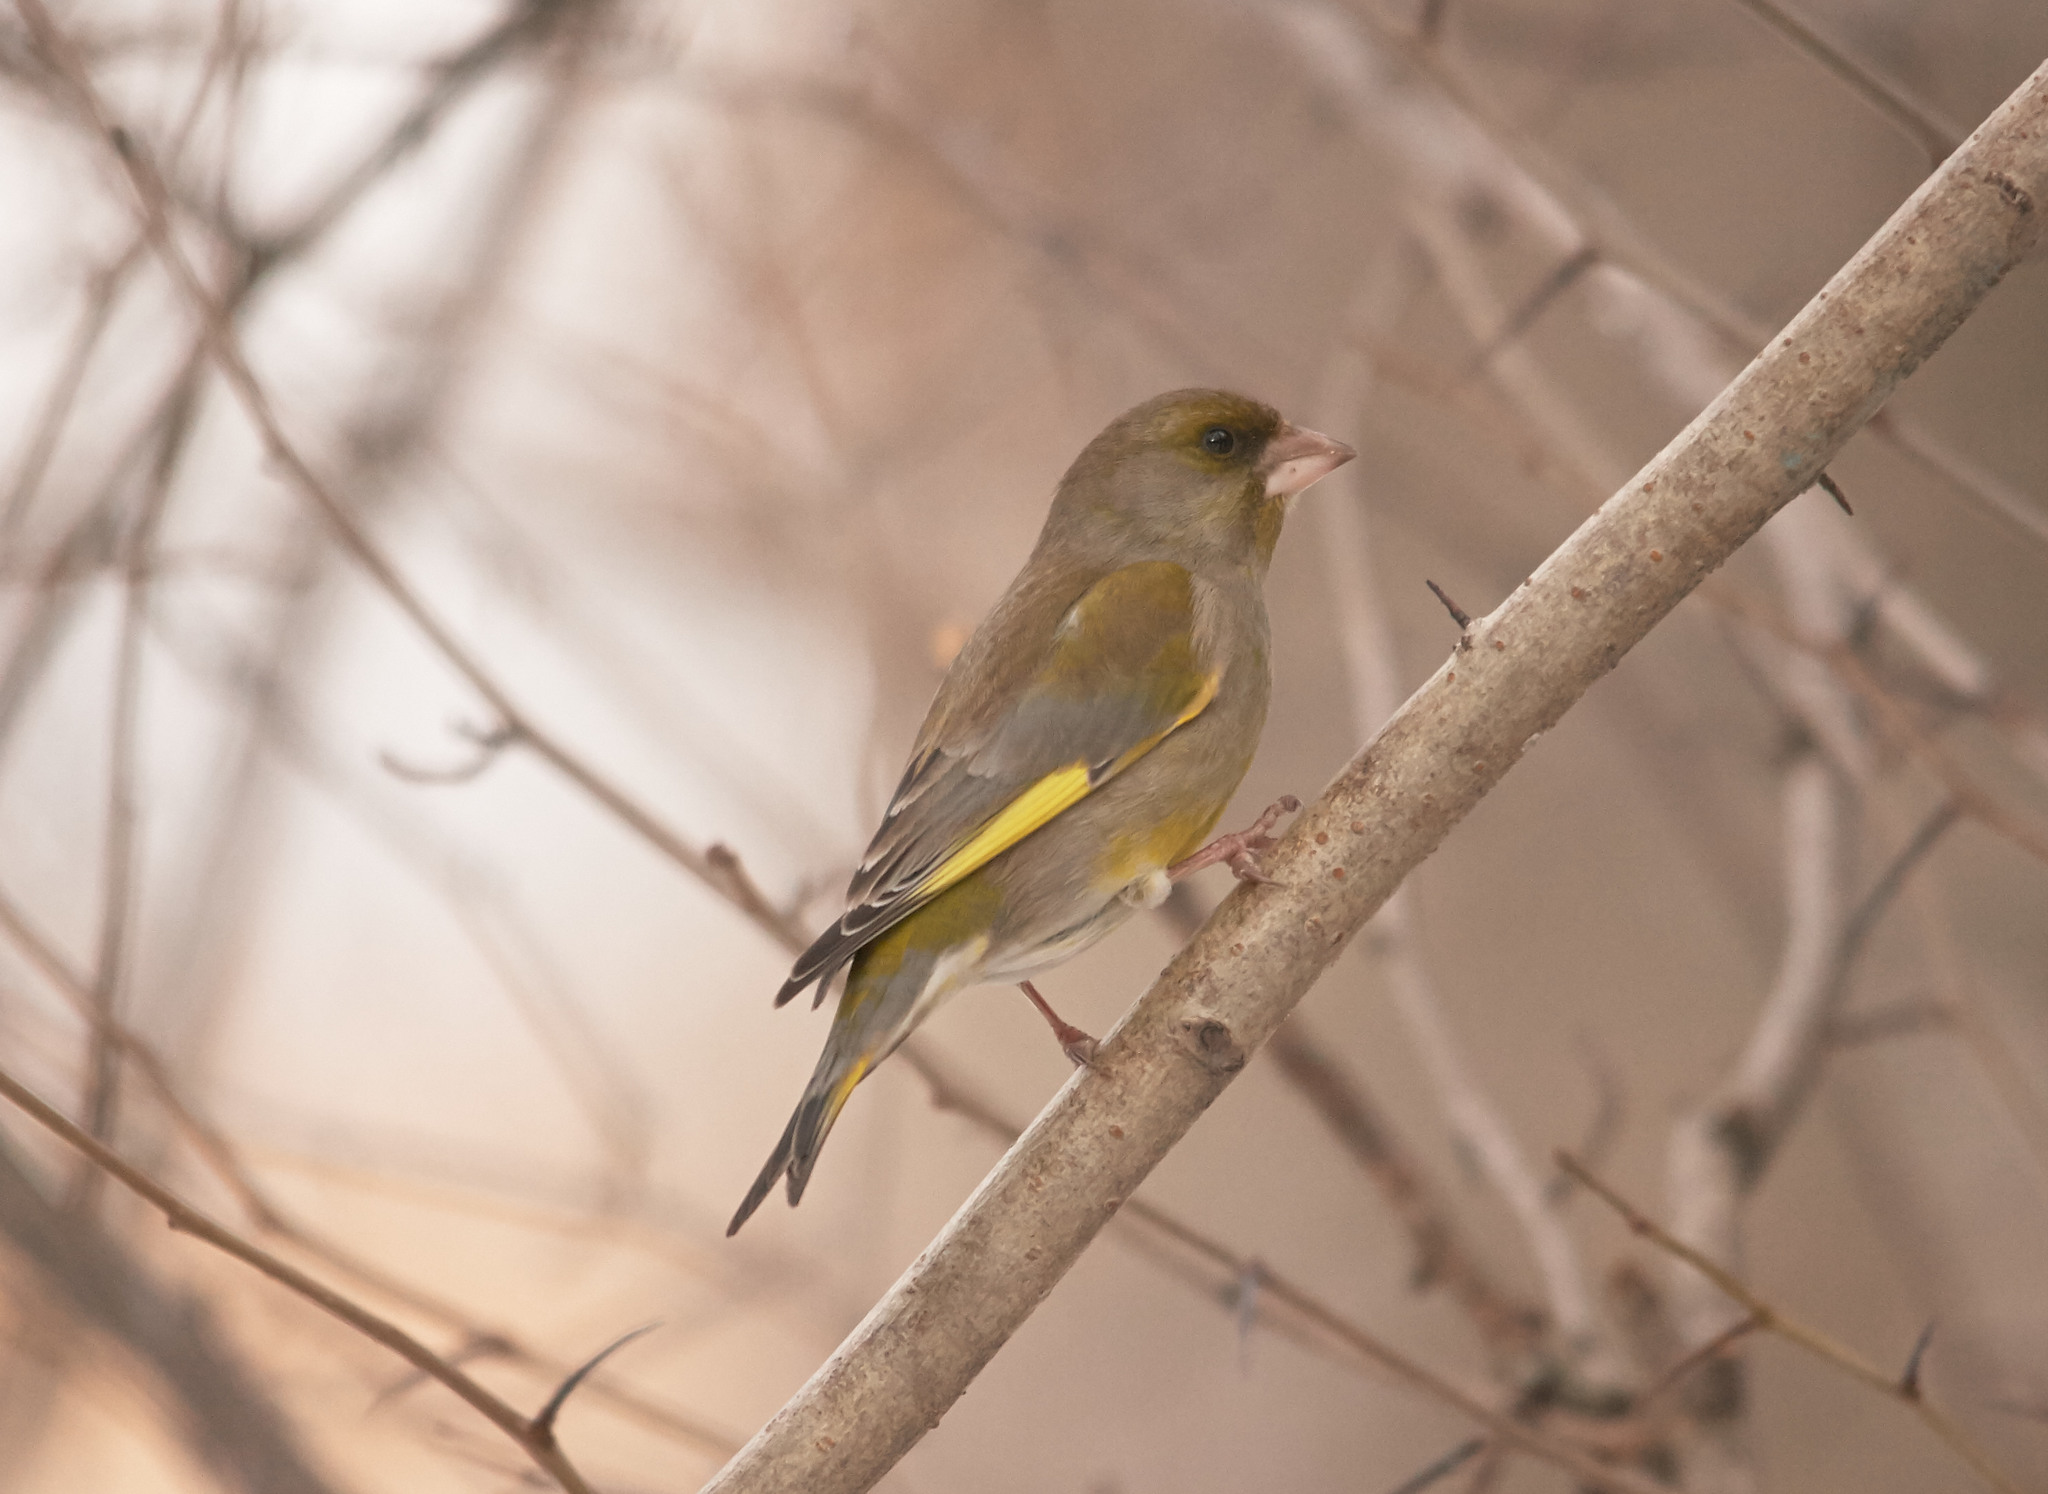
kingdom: Plantae
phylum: Tracheophyta
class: Liliopsida
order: Poales
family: Poaceae
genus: Chloris
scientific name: Chloris chloris
